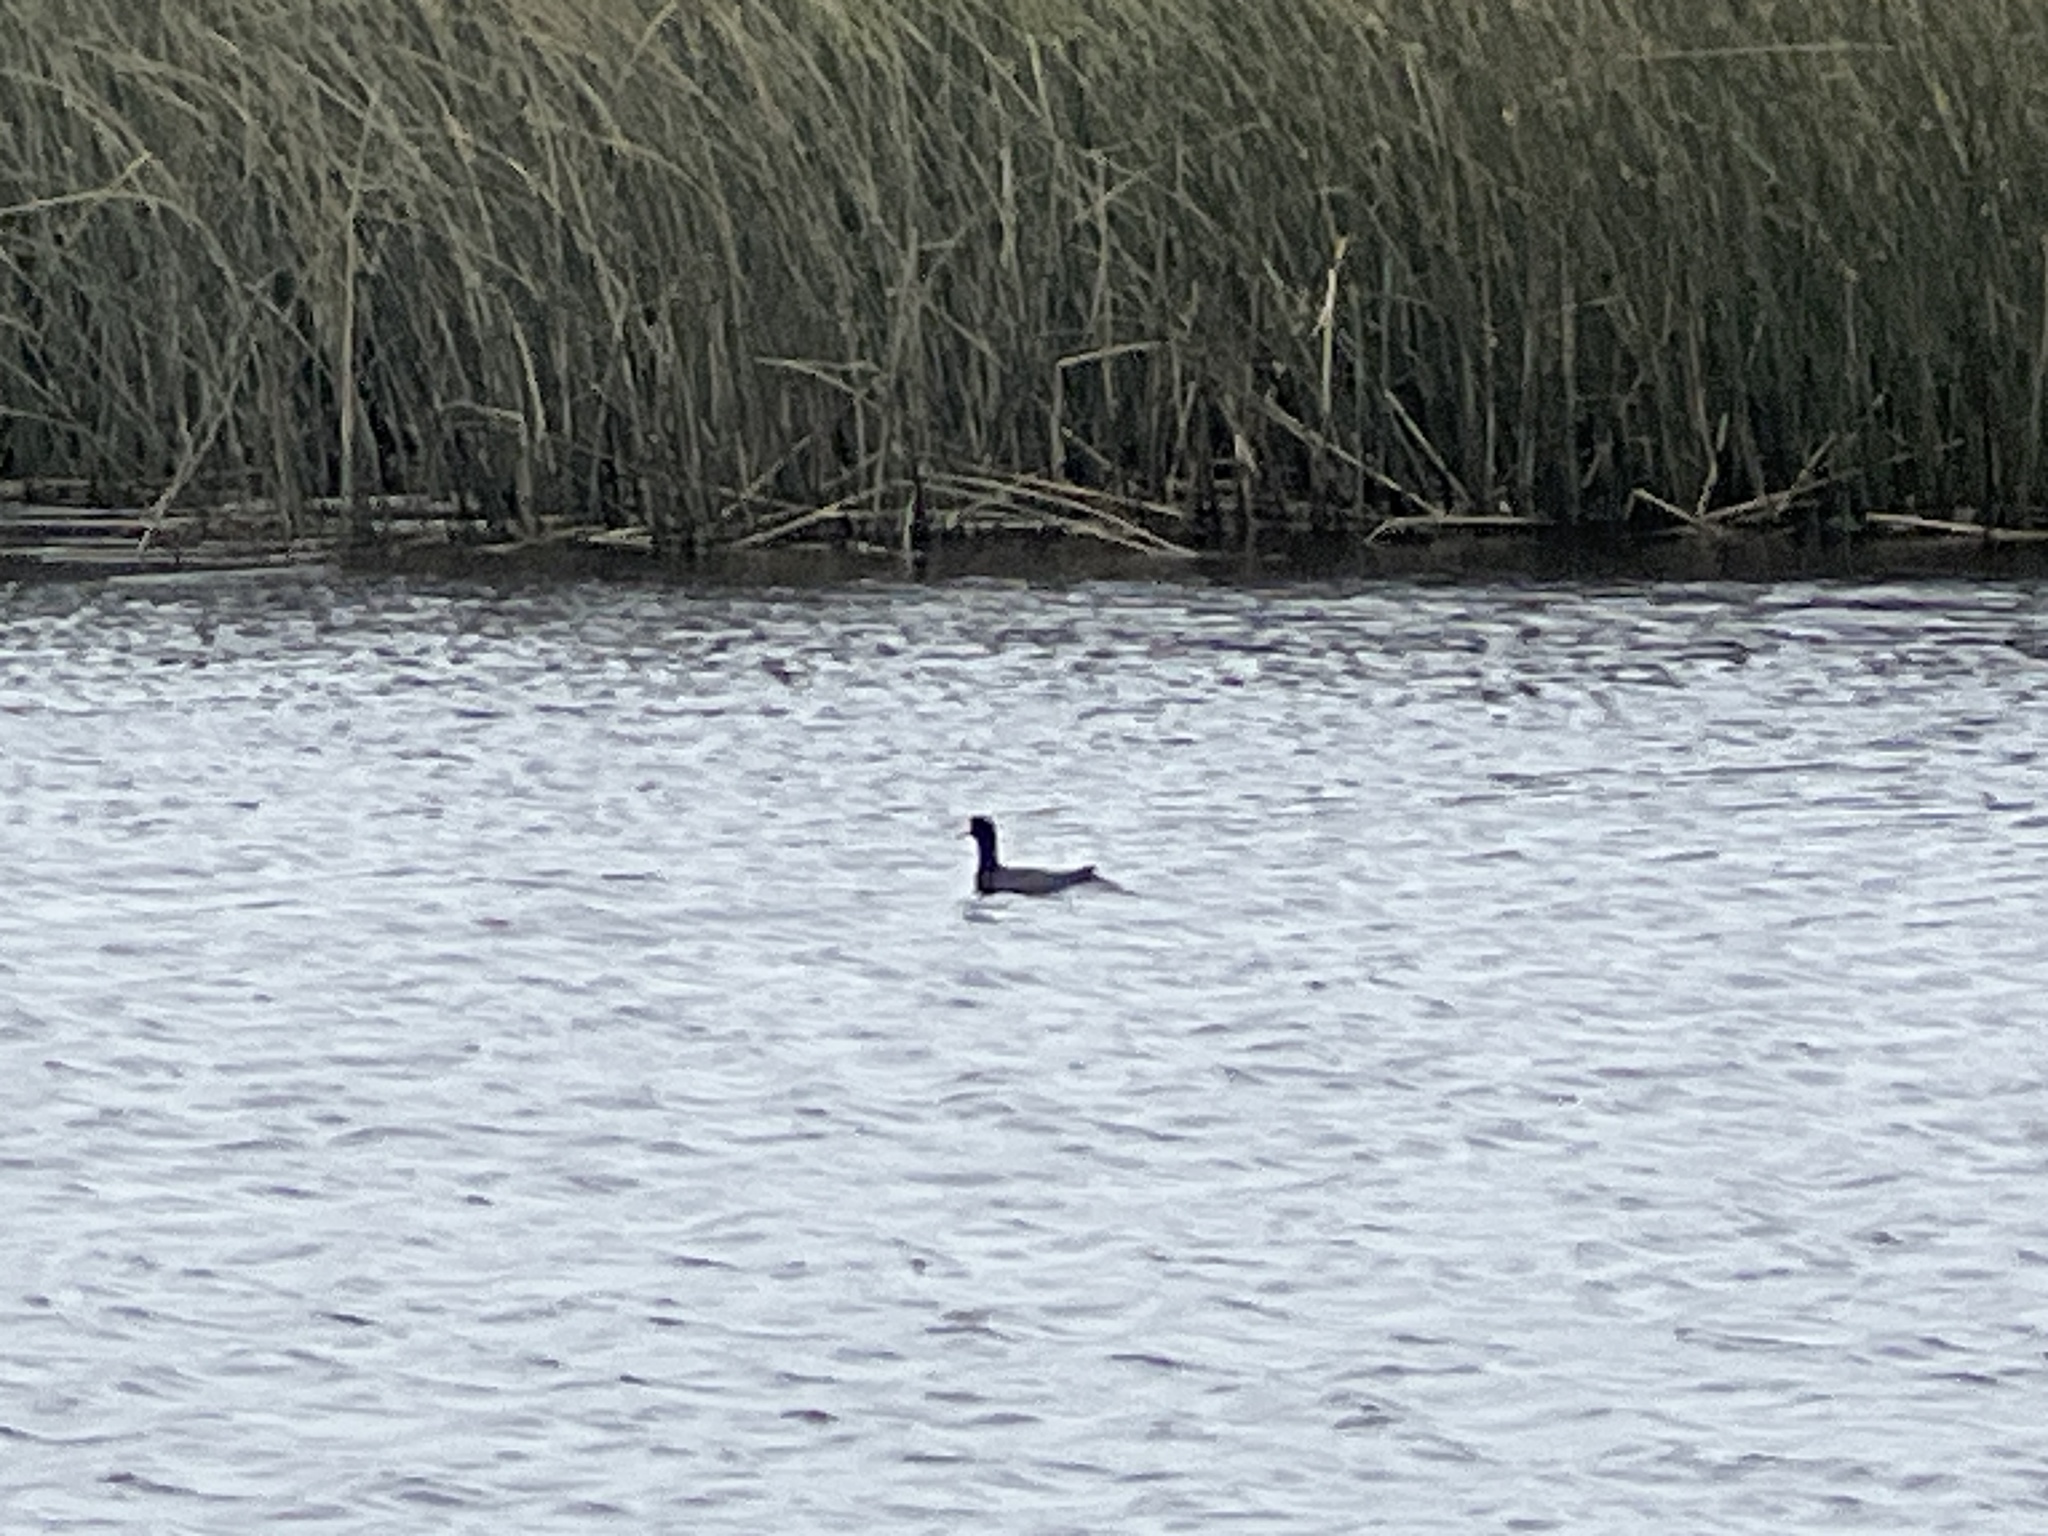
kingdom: Animalia
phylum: Chordata
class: Aves
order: Gruiformes
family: Rallidae
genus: Fulica
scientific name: Fulica americana
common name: American coot
